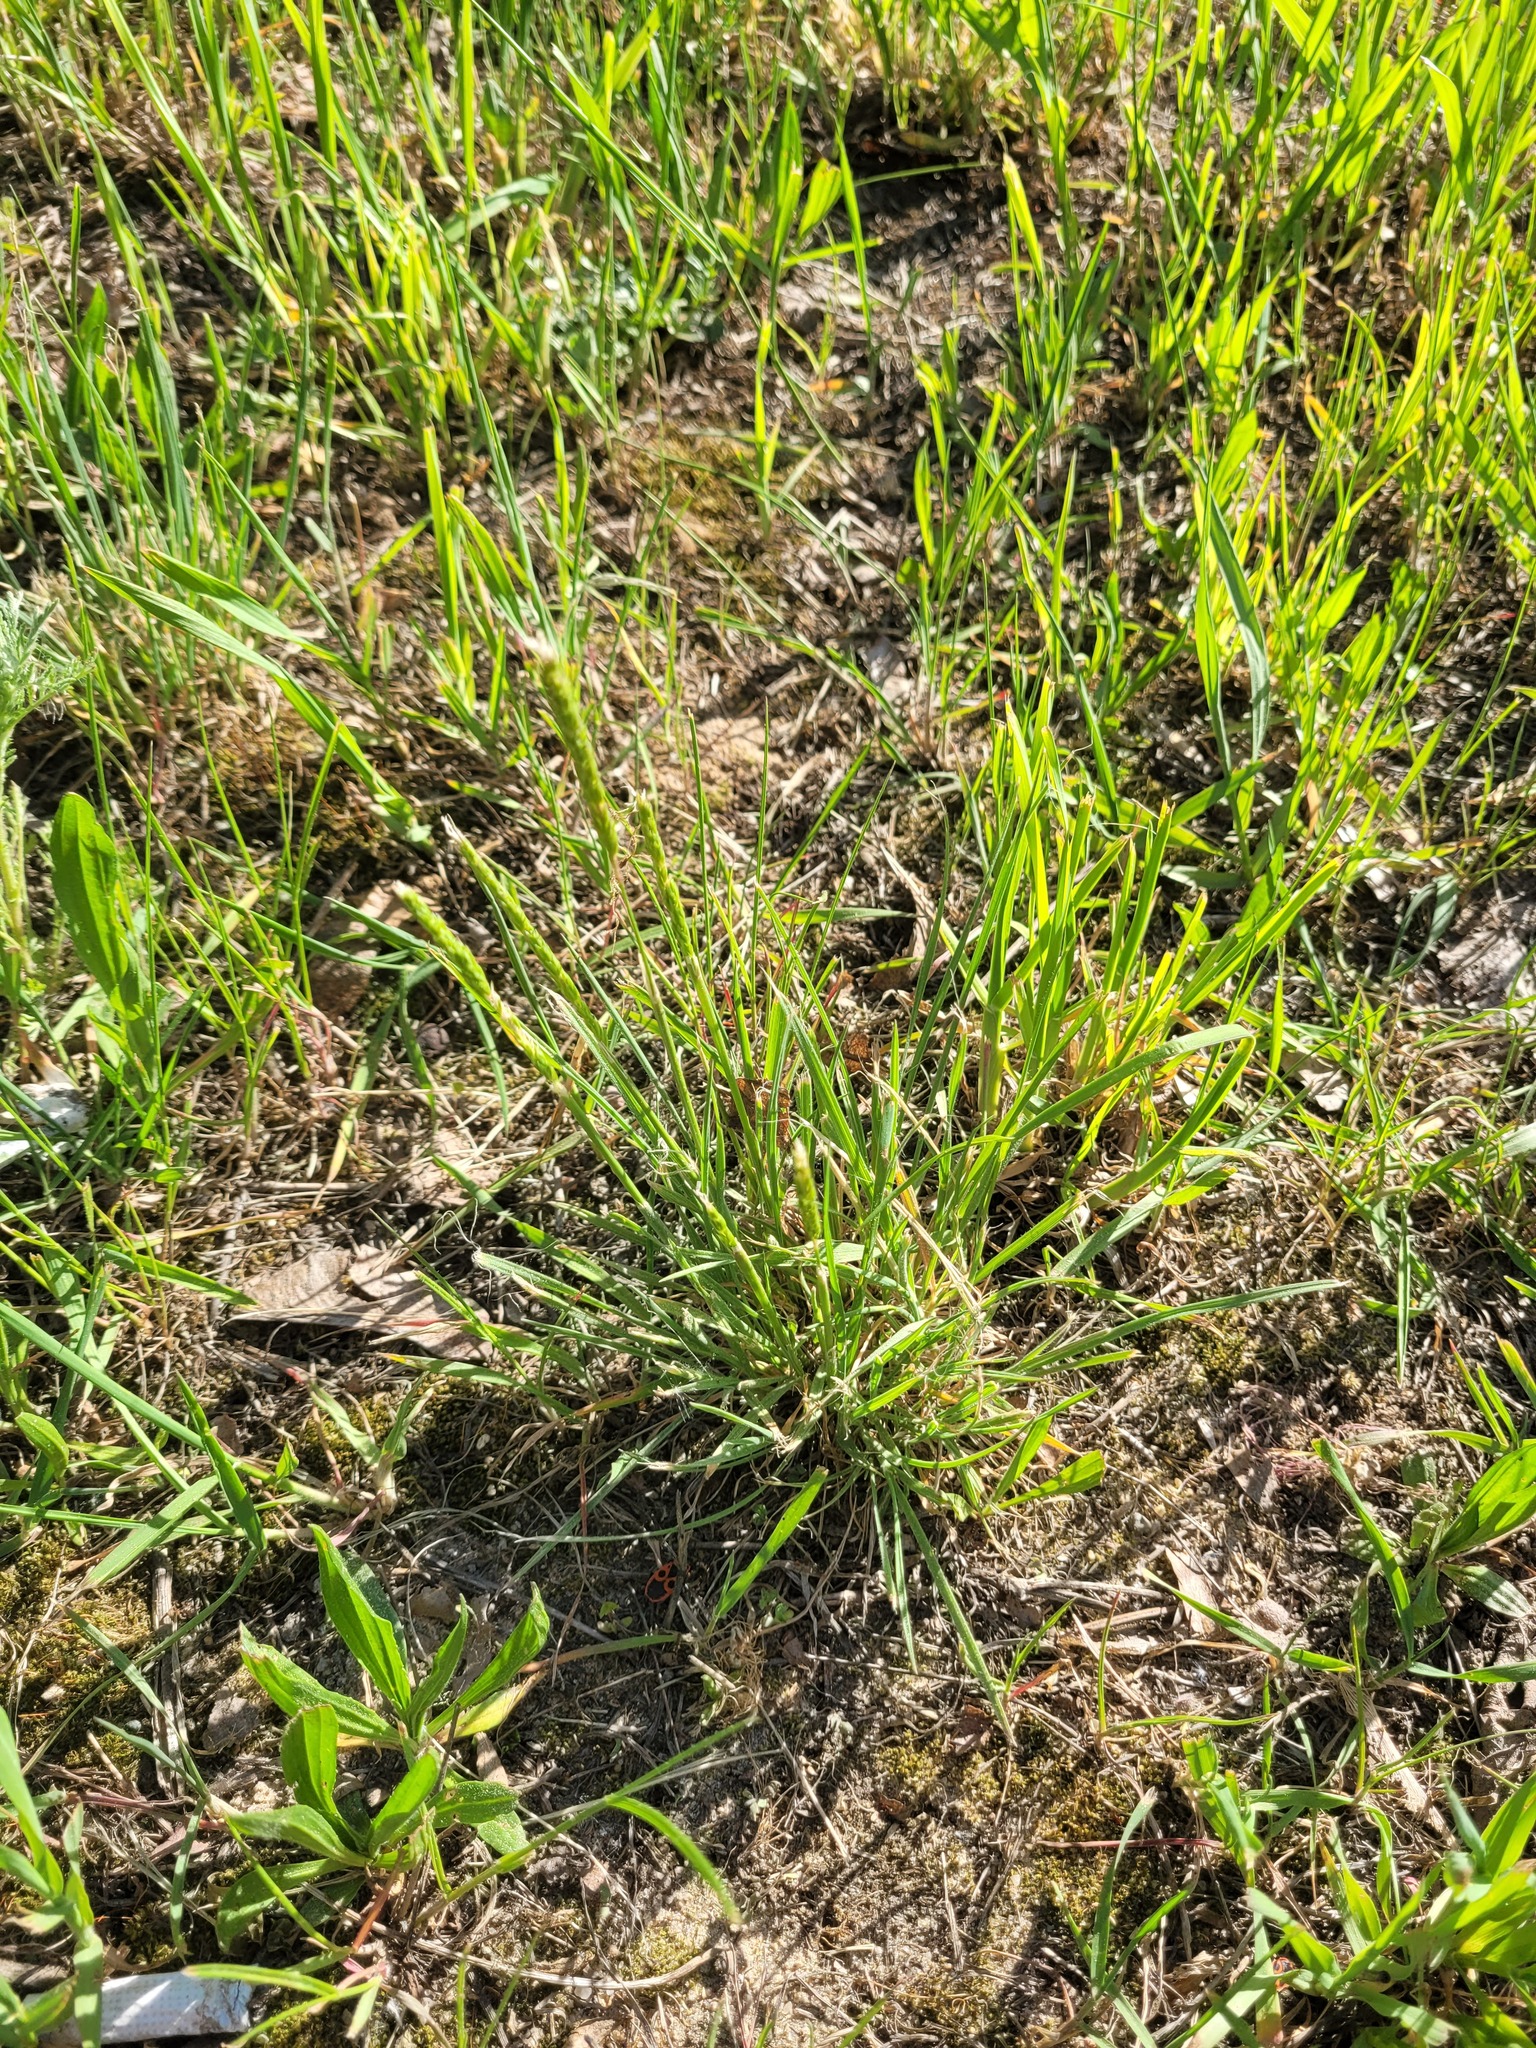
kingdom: Plantae
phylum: Tracheophyta
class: Liliopsida
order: Poales
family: Poaceae
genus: Koeleria
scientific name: Koeleria macrantha
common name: Crested hair-grass
